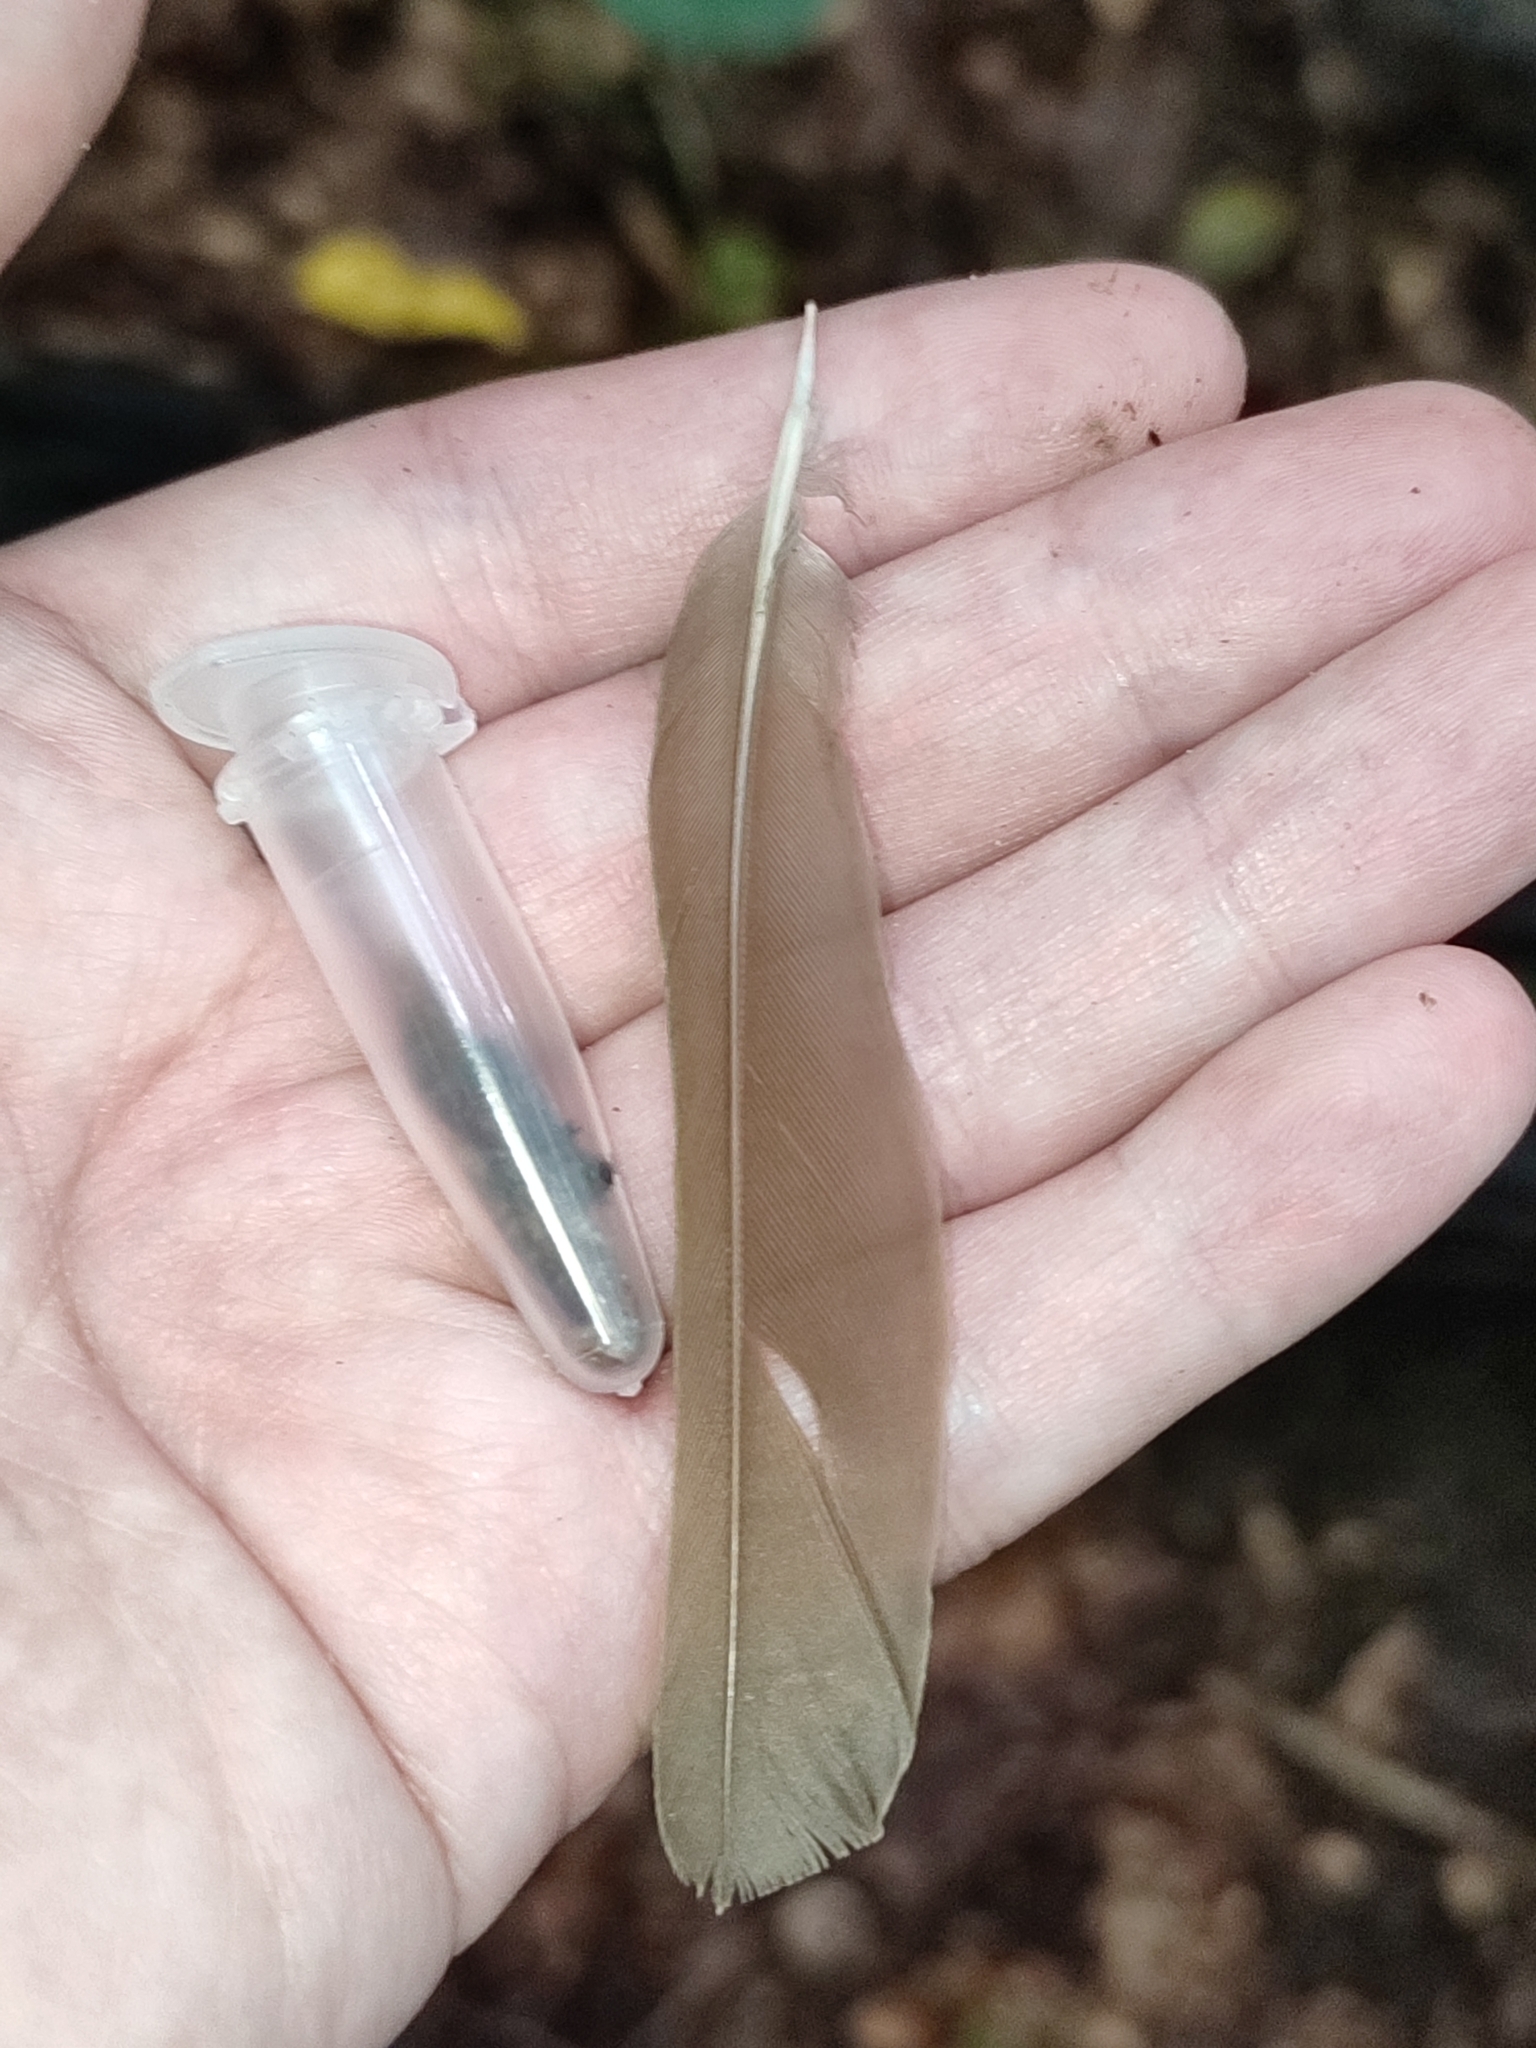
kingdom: Animalia
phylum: Chordata
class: Aves
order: Passeriformes
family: Turdidae
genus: Turdus
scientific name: Turdus philomelos
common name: Song thrush
